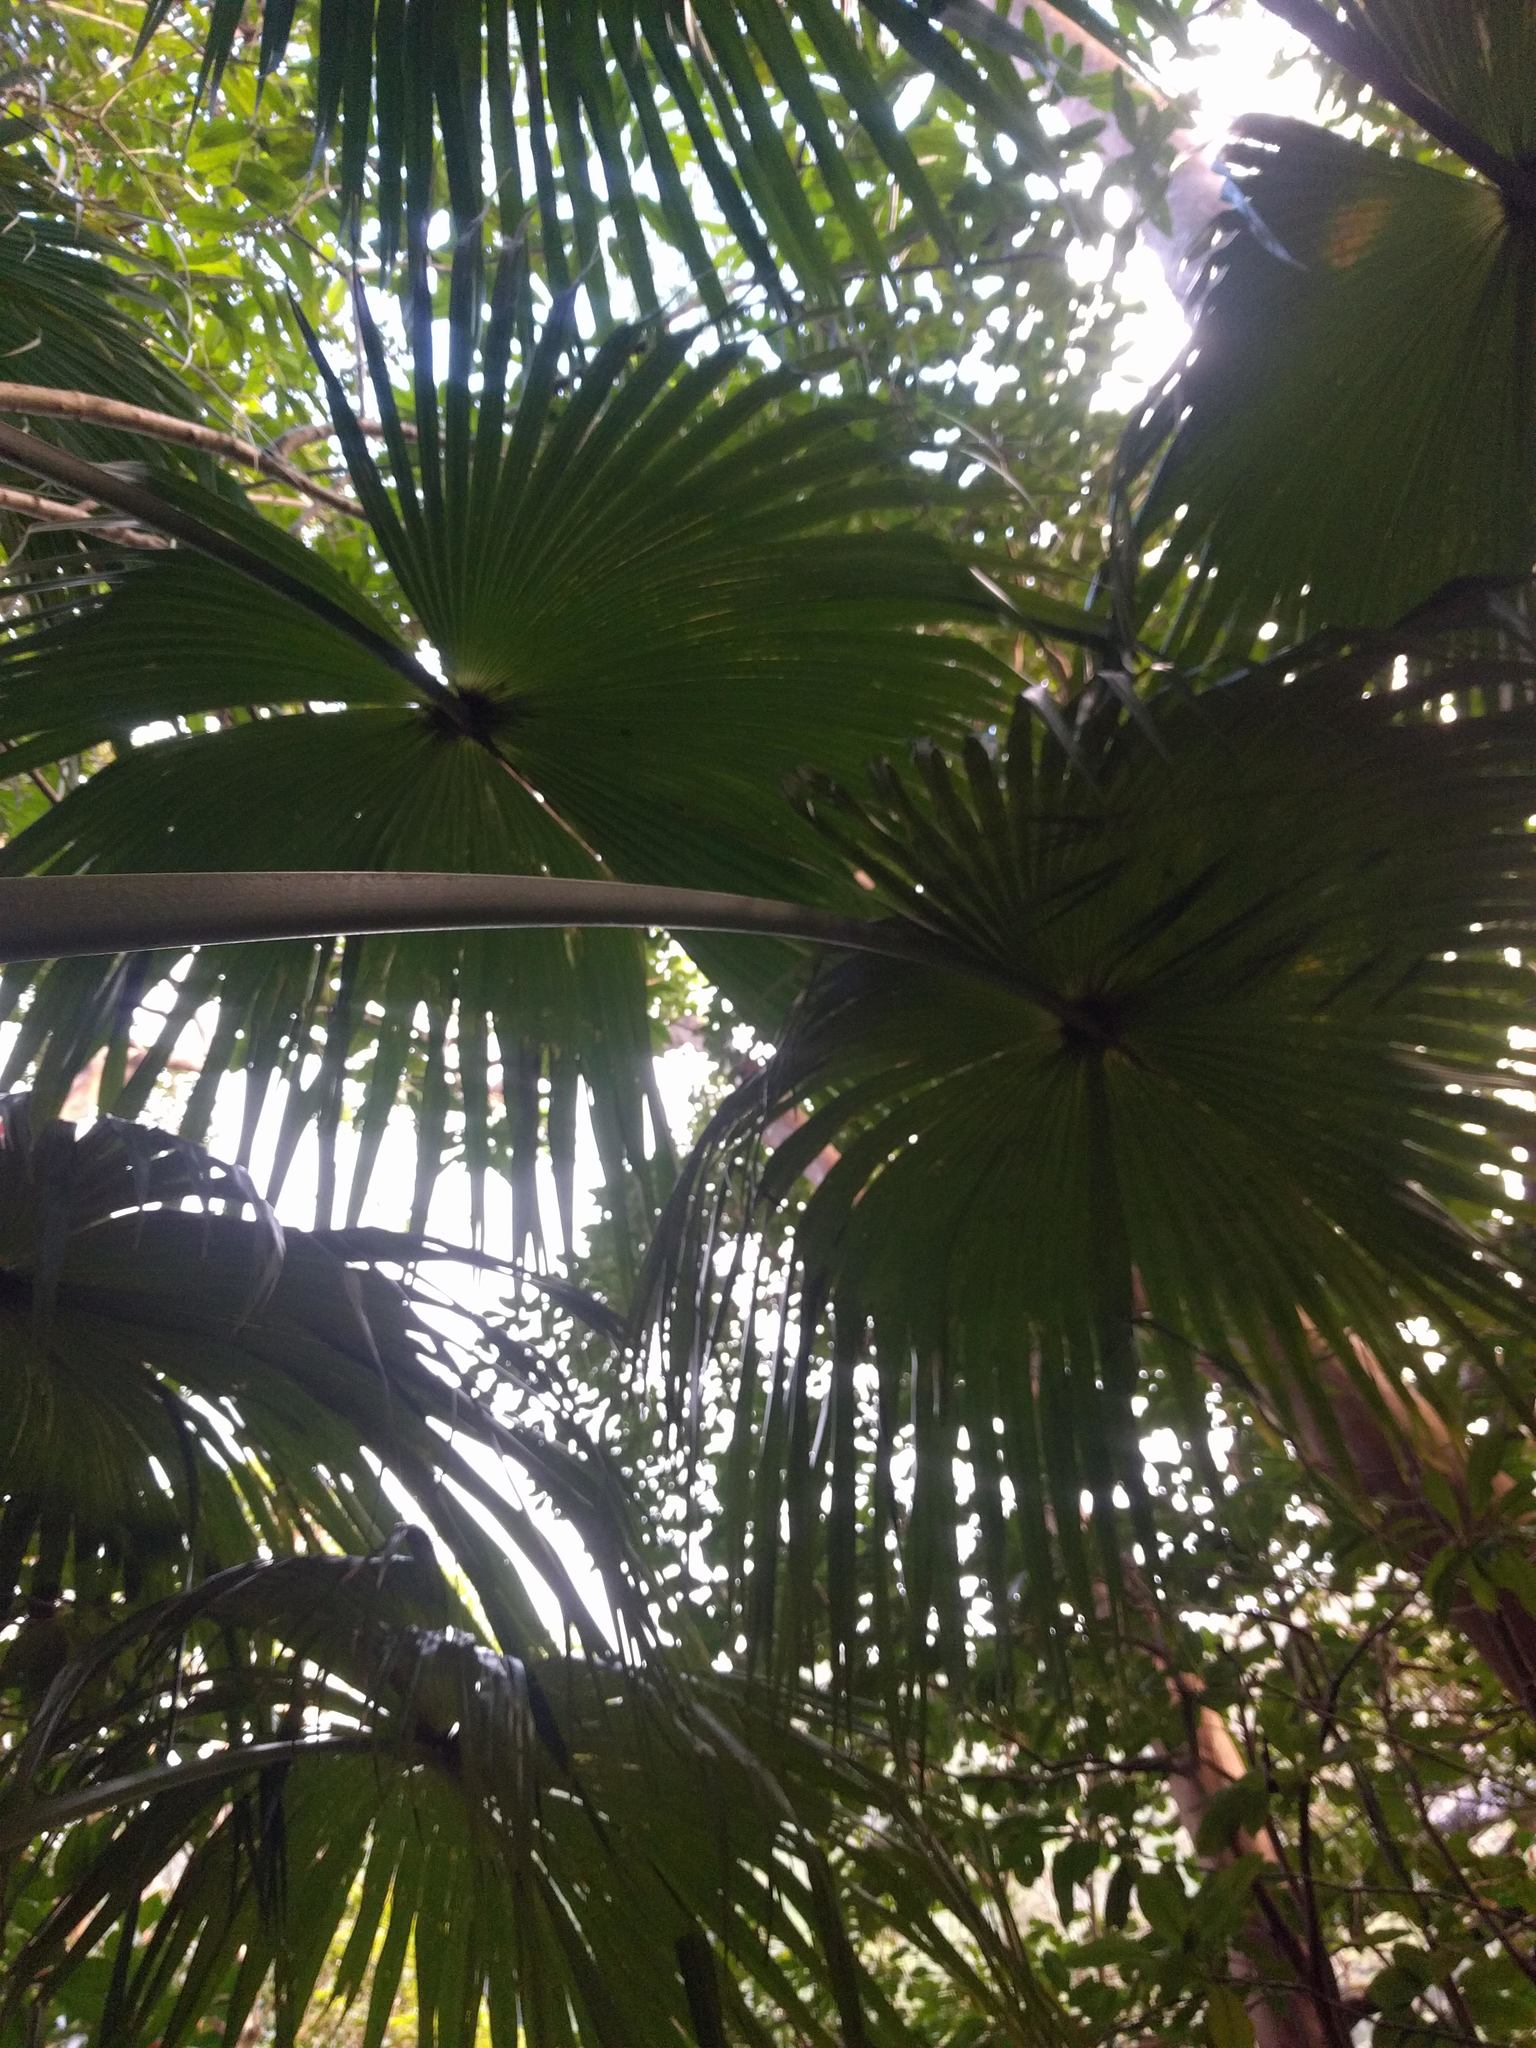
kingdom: Plantae
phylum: Tracheophyta
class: Liliopsida
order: Arecales
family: Arecaceae
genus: Livistona
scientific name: Livistona chinensis
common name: Fountain palm
